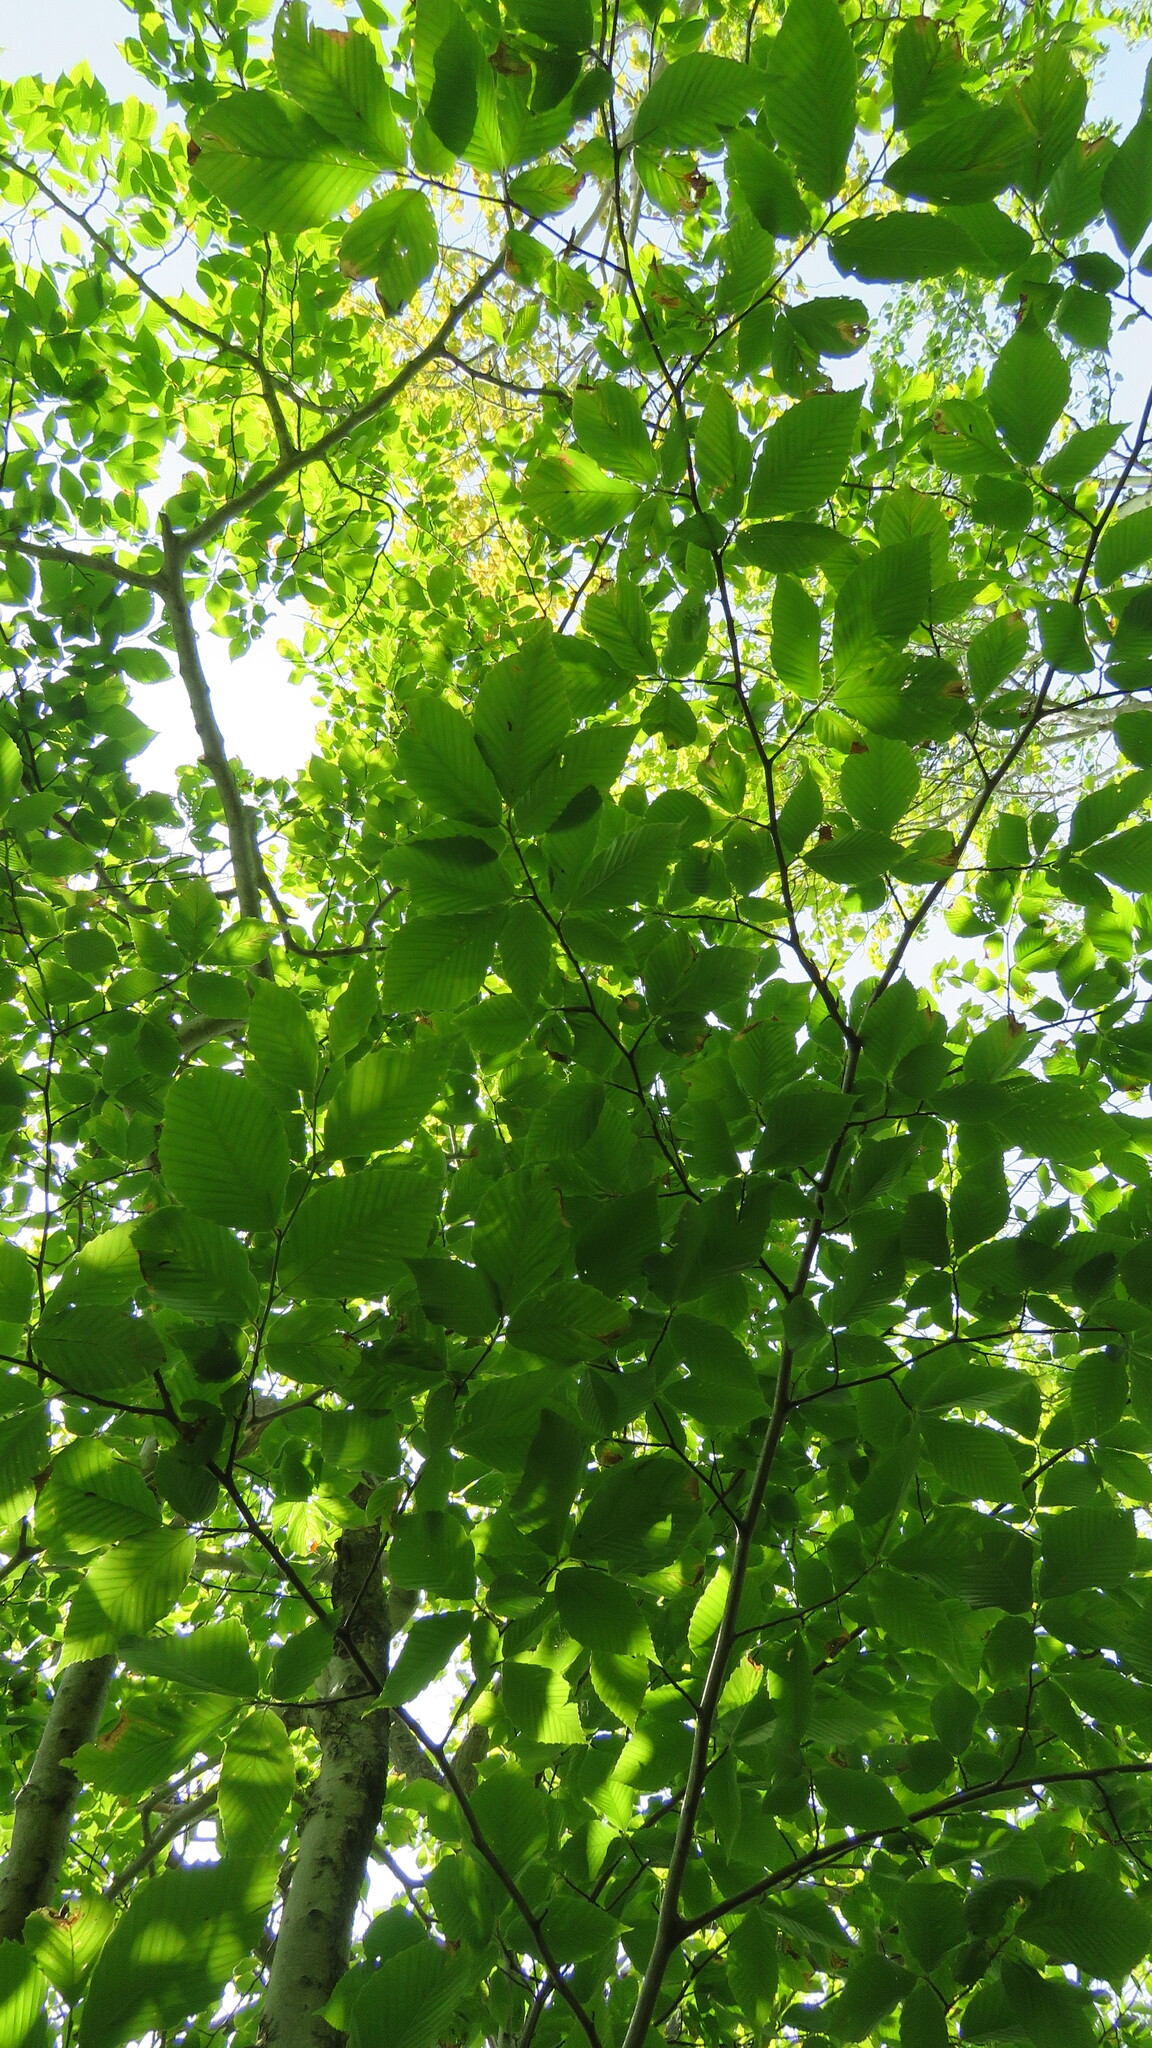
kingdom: Plantae
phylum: Tracheophyta
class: Magnoliopsida
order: Fagales
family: Fagaceae
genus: Fagus
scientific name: Fagus grandifolia
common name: American beech
